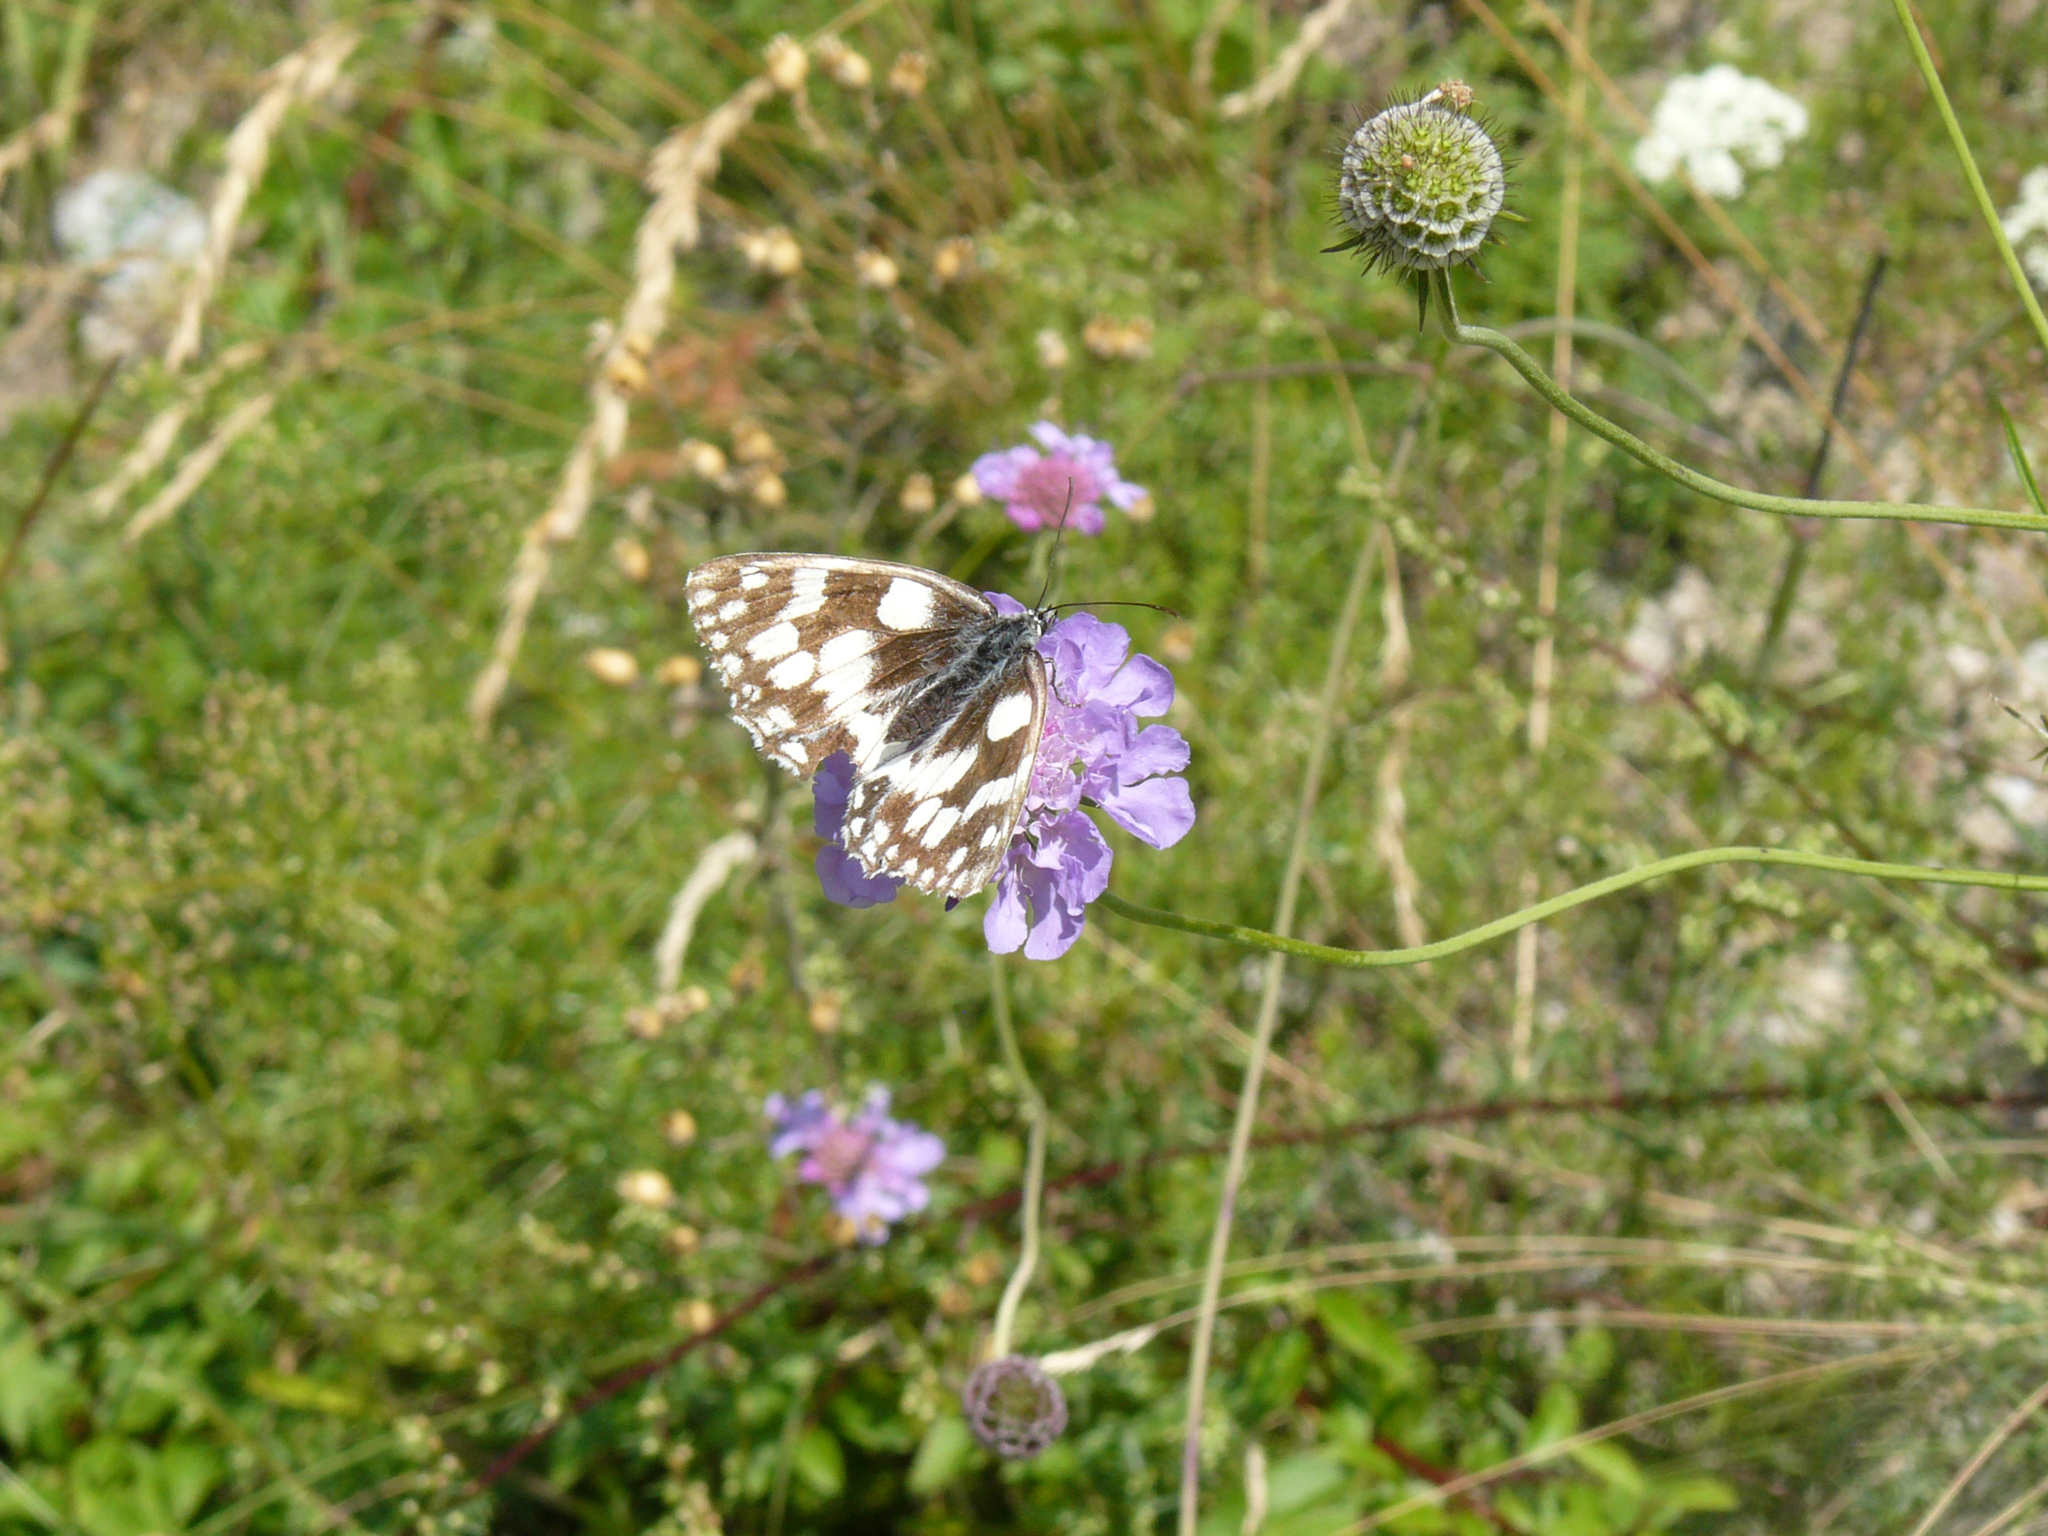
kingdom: Animalia
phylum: Arthropoda
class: Insecta
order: Lepidoptera
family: Nymphalidae
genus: Melanargia
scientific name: Melanargia galathea
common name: Marbled white
